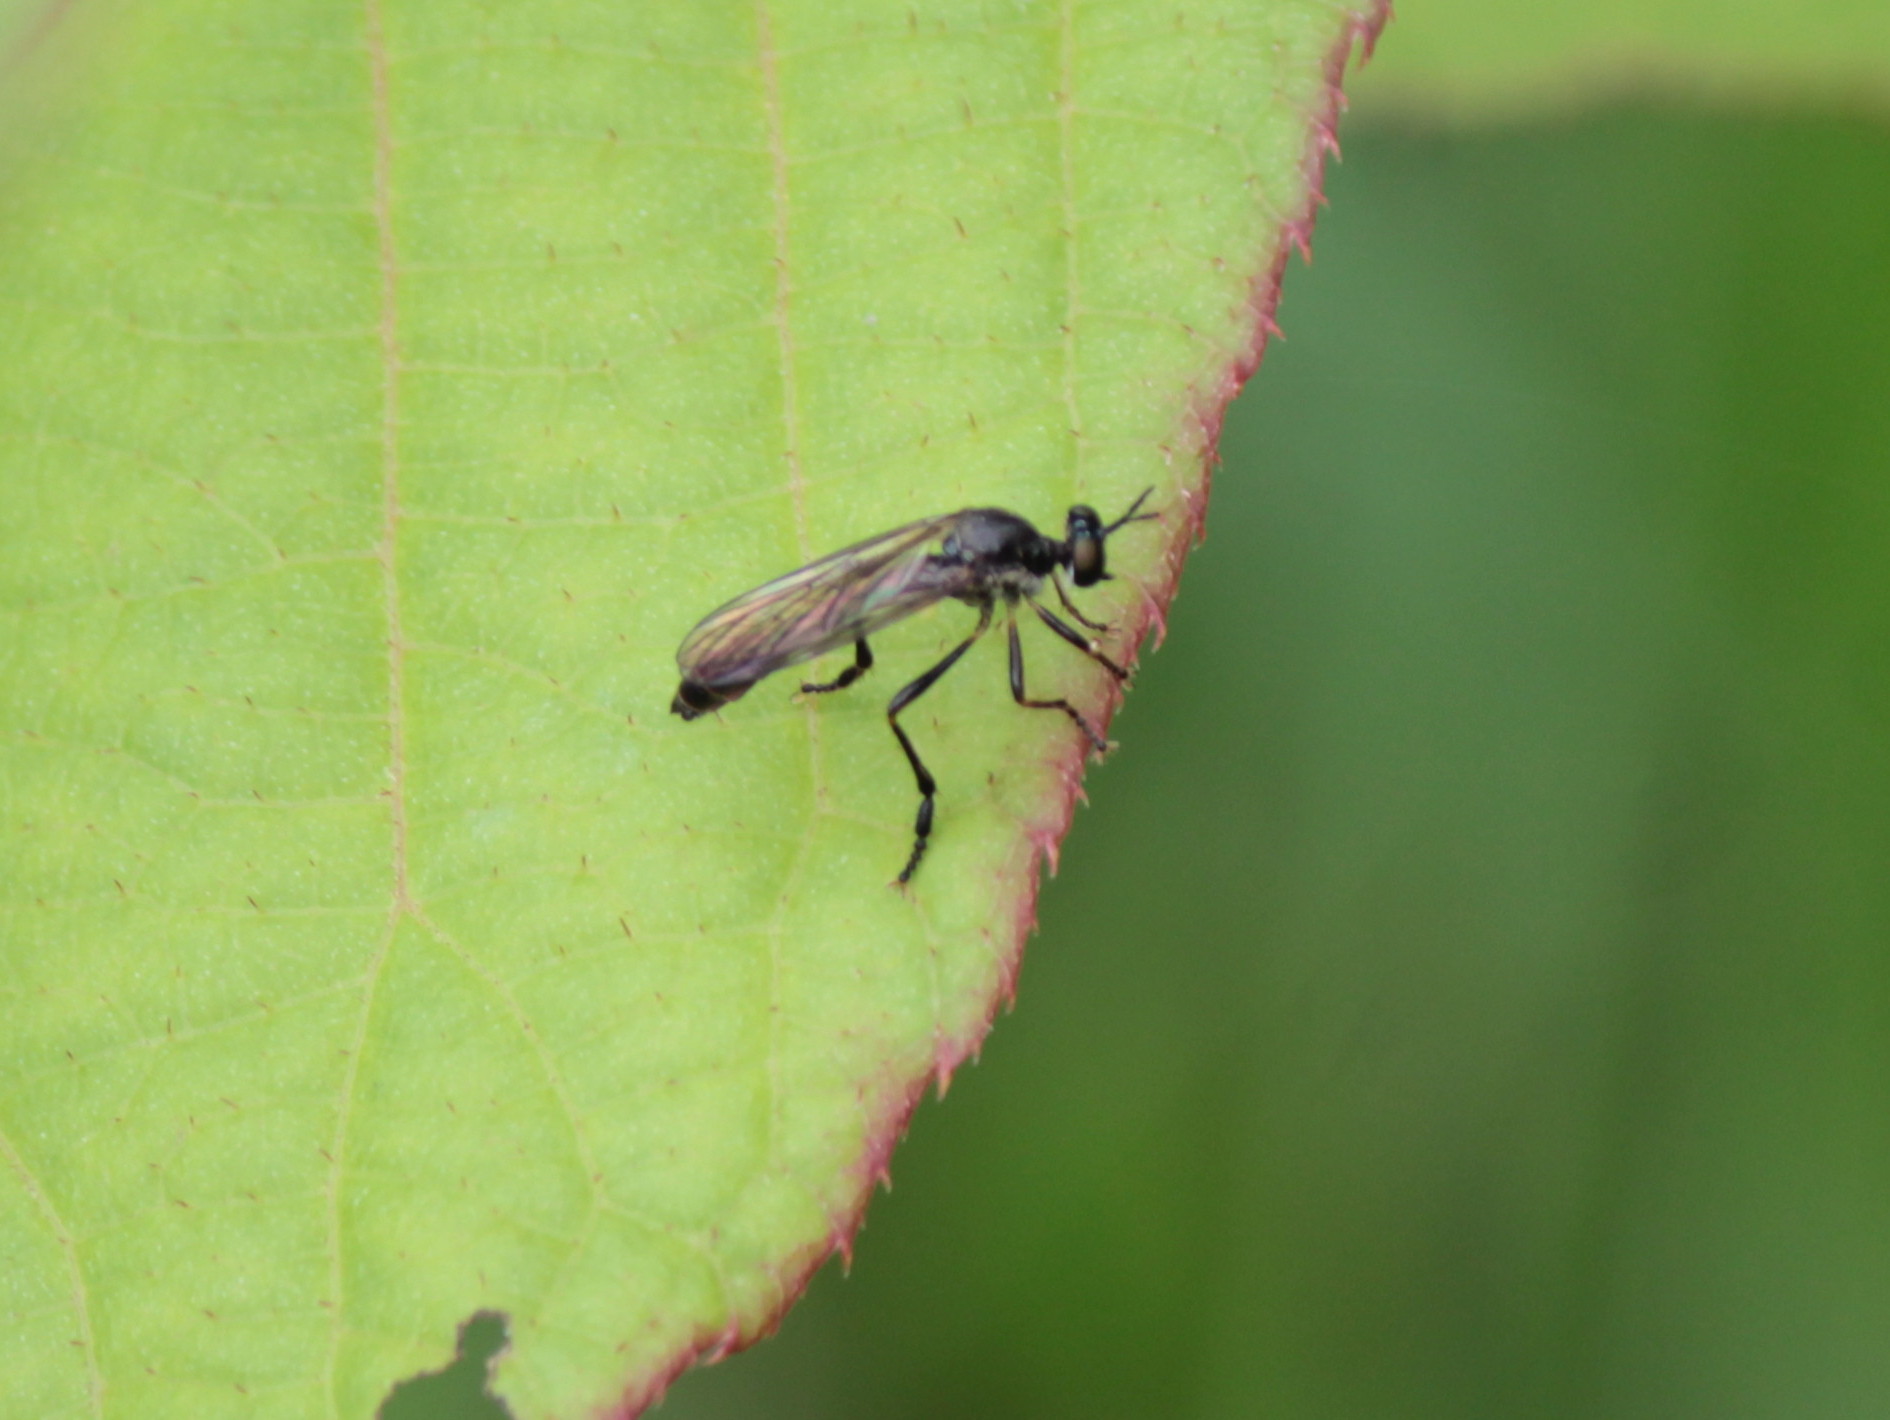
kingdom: Animalia
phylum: Arthropoda
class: Insecta
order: Diptera
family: Asilidae
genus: Dioctria
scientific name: Dioctria hyalipennis
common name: Stripe-legged robberfly
